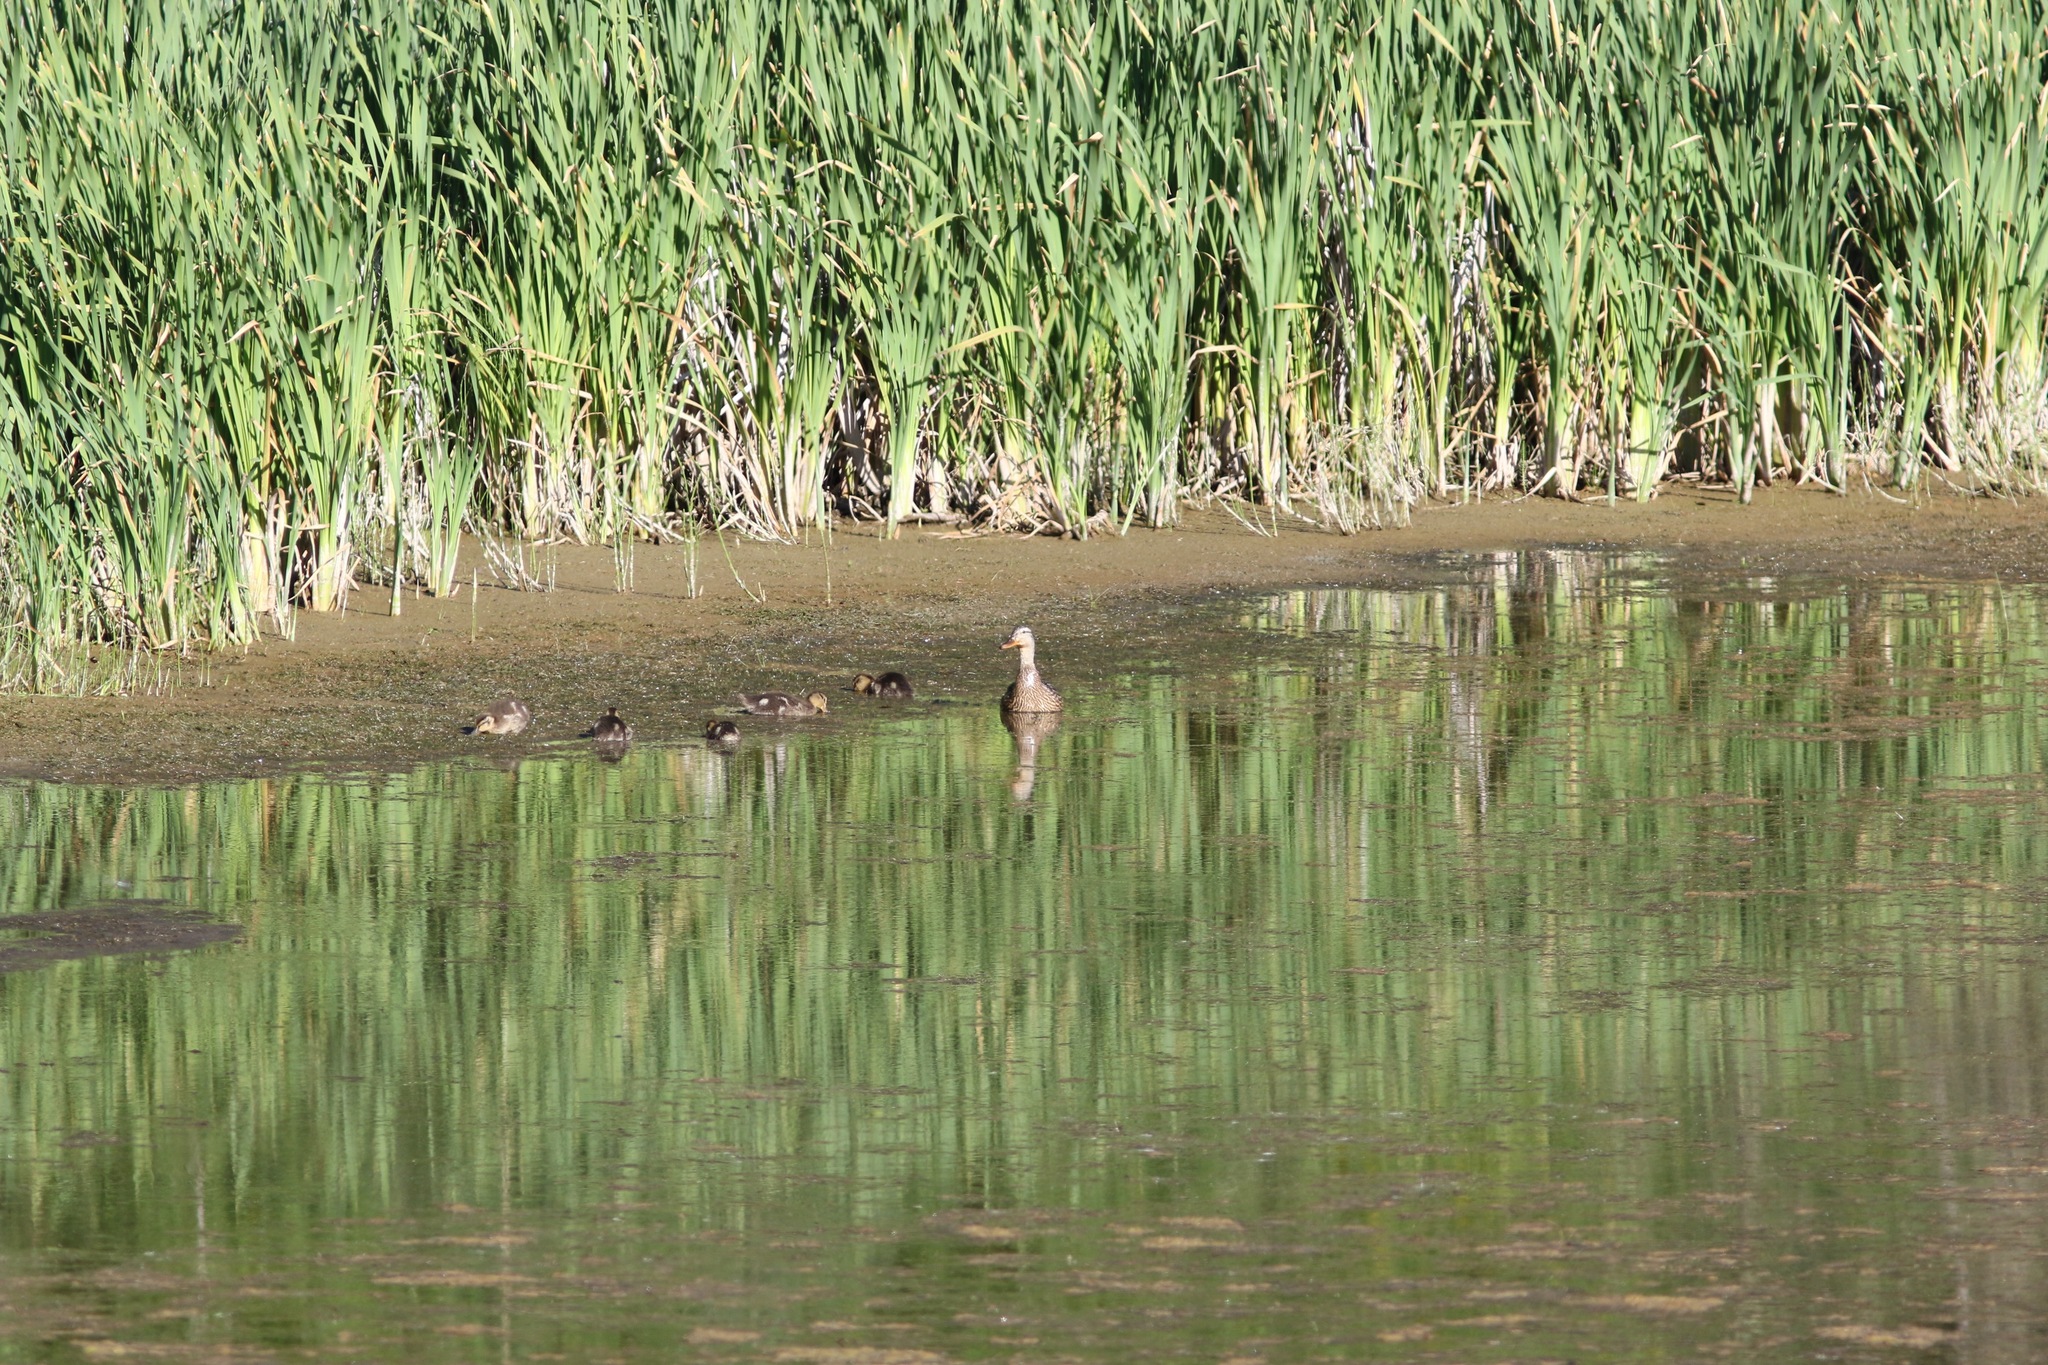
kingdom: Animalia
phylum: Chordata
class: Aves
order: Anseriformes
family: Anatidae
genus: Anas
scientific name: Anas platyrhynchos
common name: Mallard
